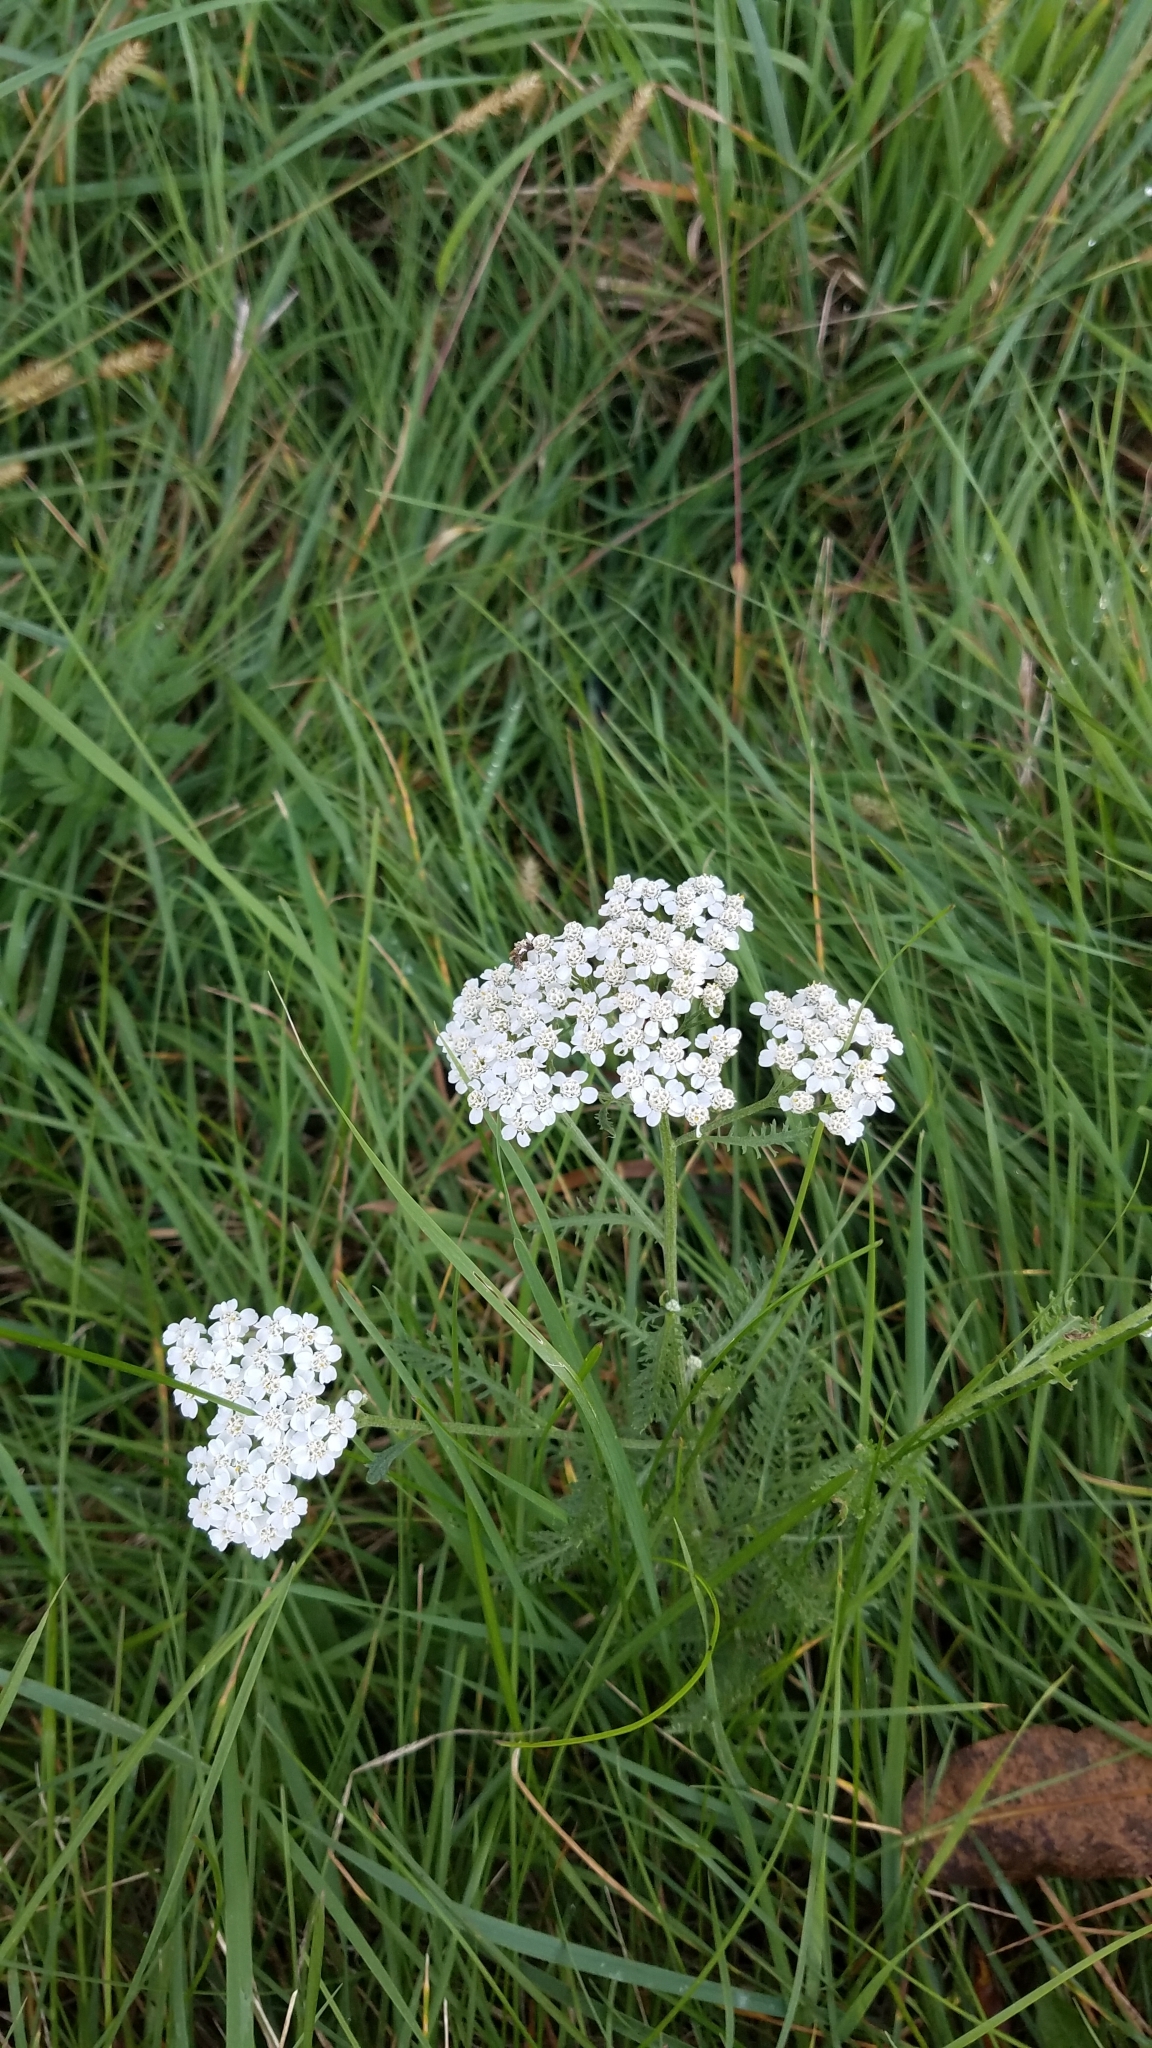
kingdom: Plantae
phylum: Tracheophyta
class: Magnoliopsida
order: Asterales
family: Asteraceae
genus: Achillea
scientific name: Achillea millefolium
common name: Yarrow
